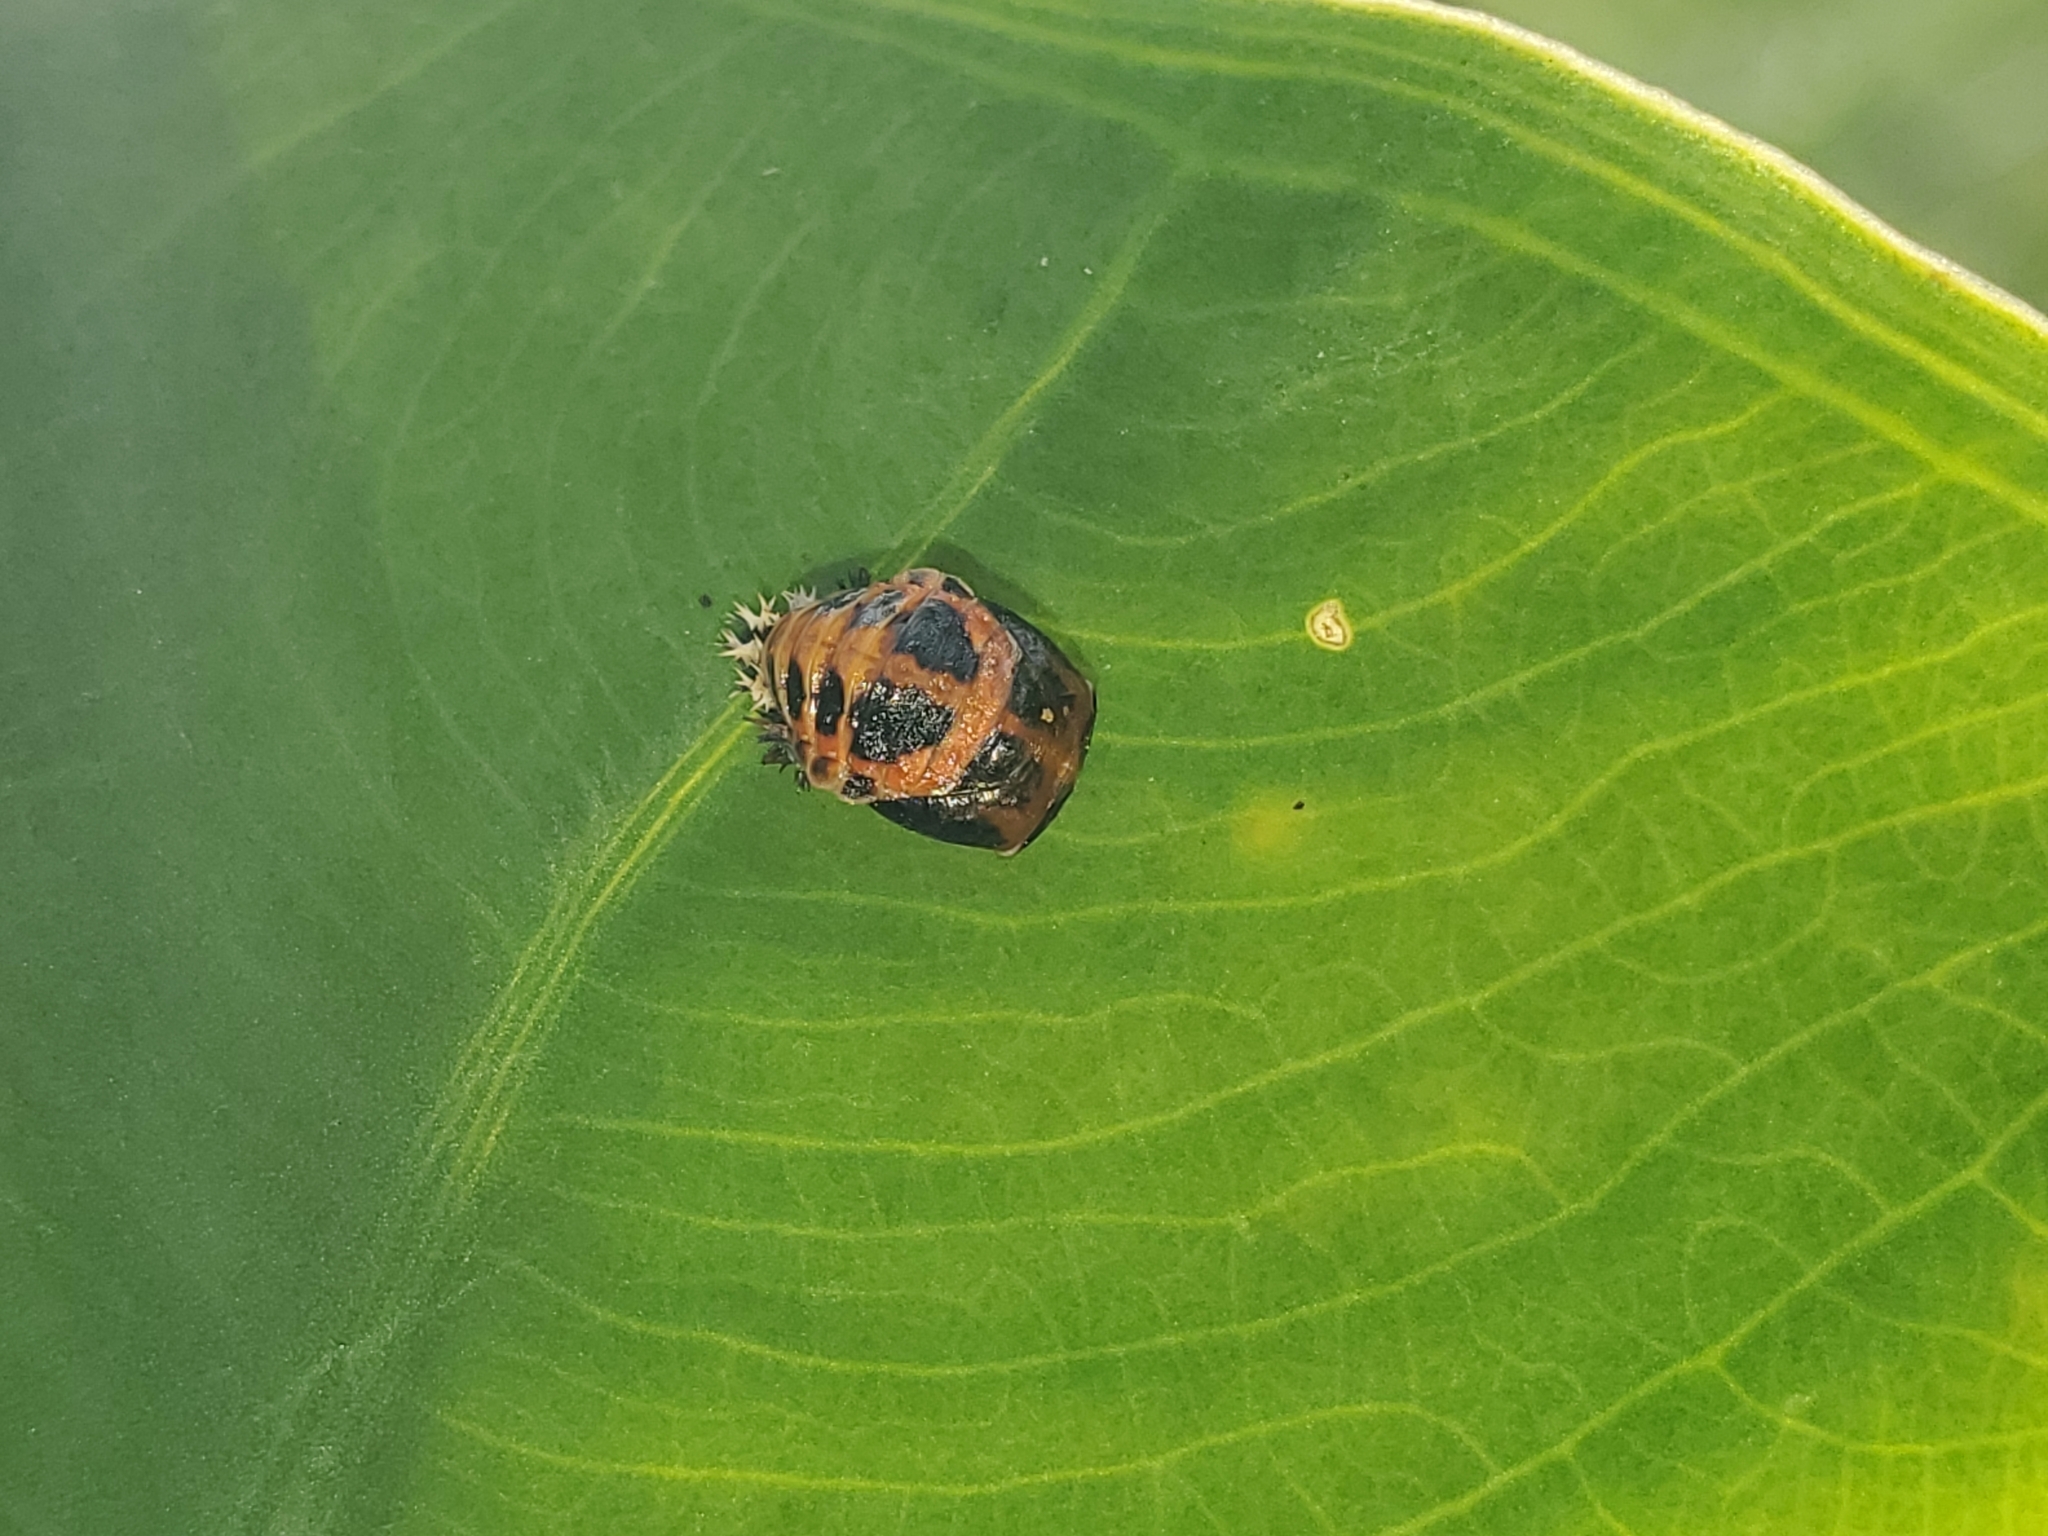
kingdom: Animalia
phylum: Arthropoda
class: Insecta
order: Coleoptera
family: Coccinellidae
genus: Harmonia
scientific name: Harmonia axyridis
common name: Harlequin ladybird
